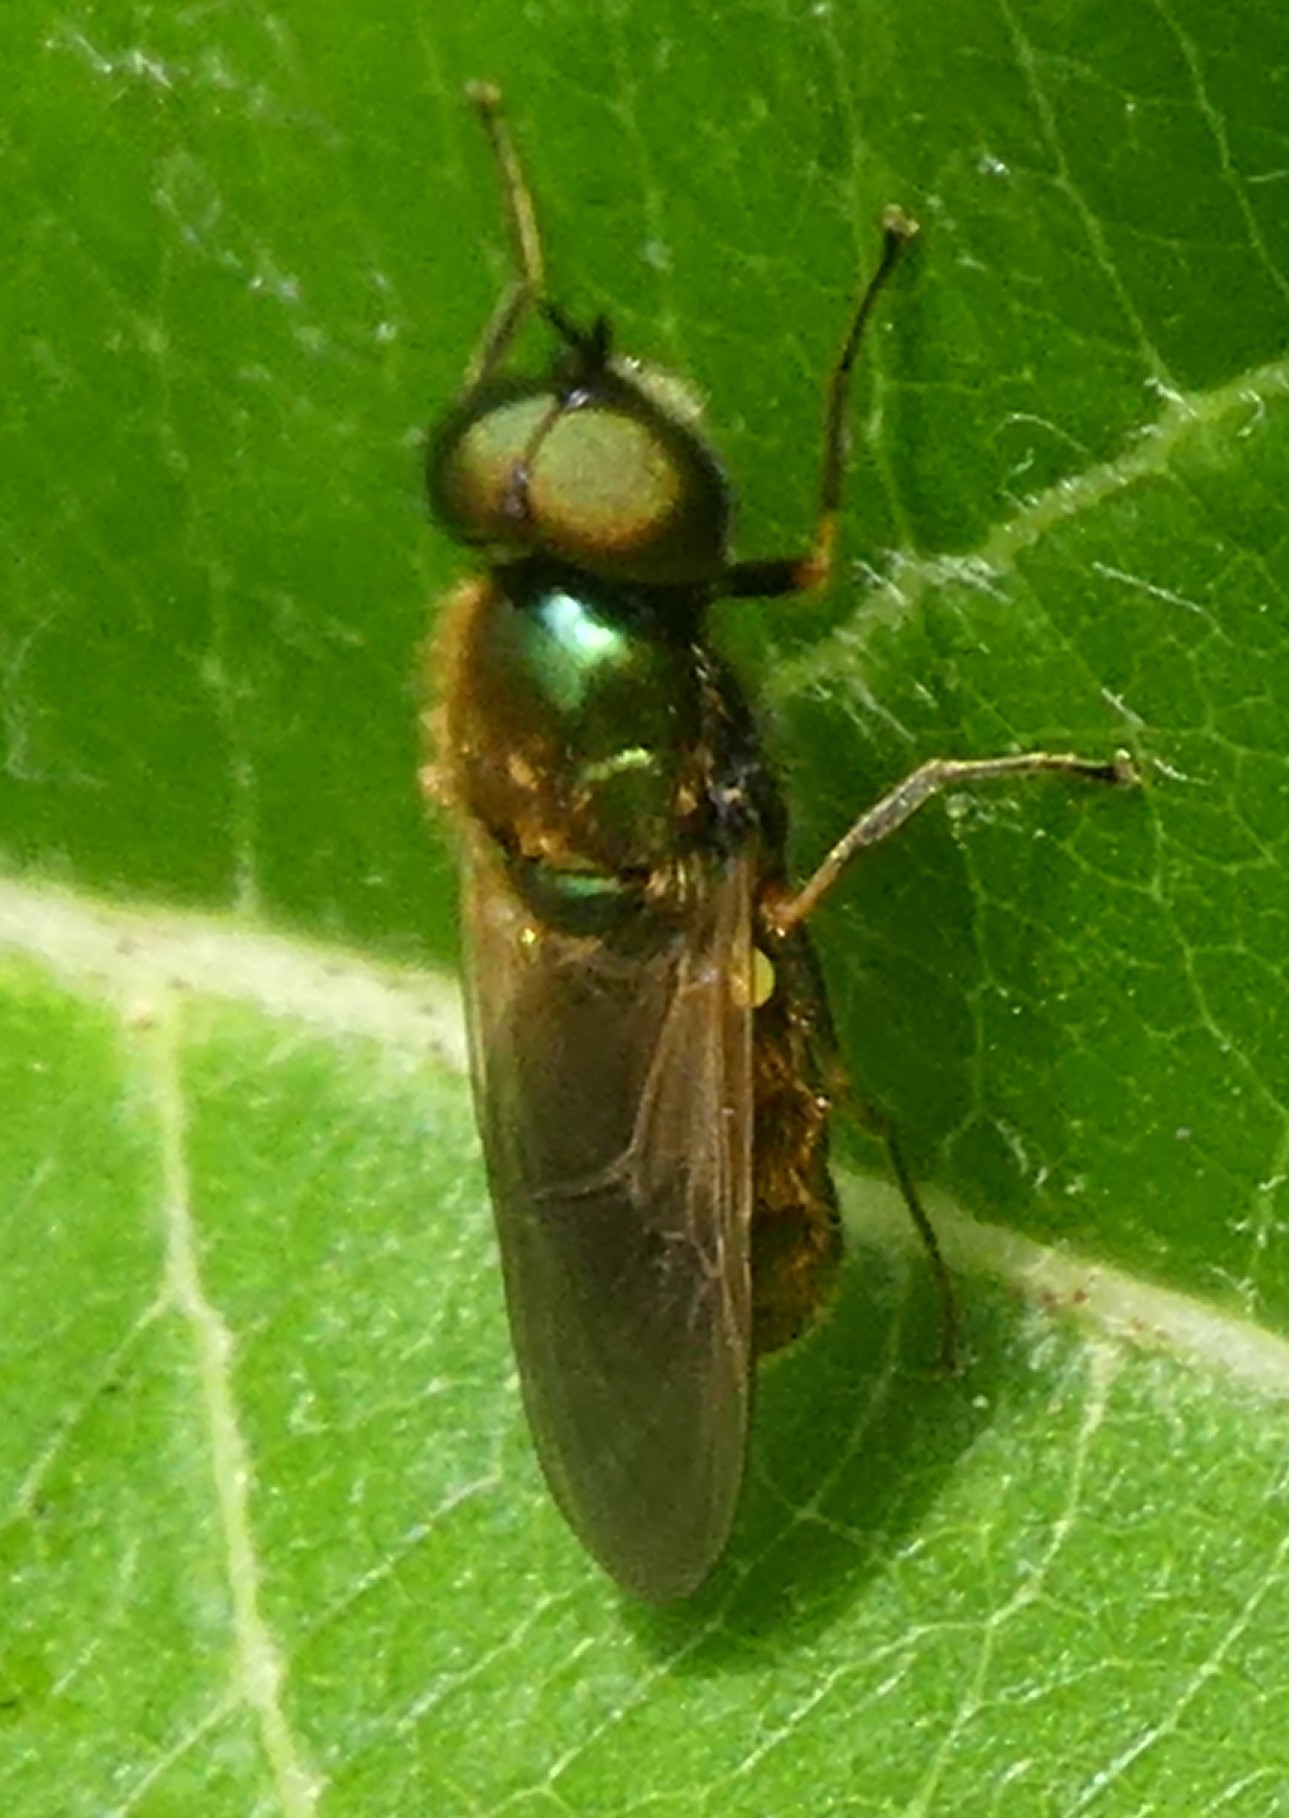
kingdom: Animalia
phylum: Arthropoda
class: Insecta
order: Diptera
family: Stratiomyidae
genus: Chloromyia
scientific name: Chloromyia formosa
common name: Soldier fly
